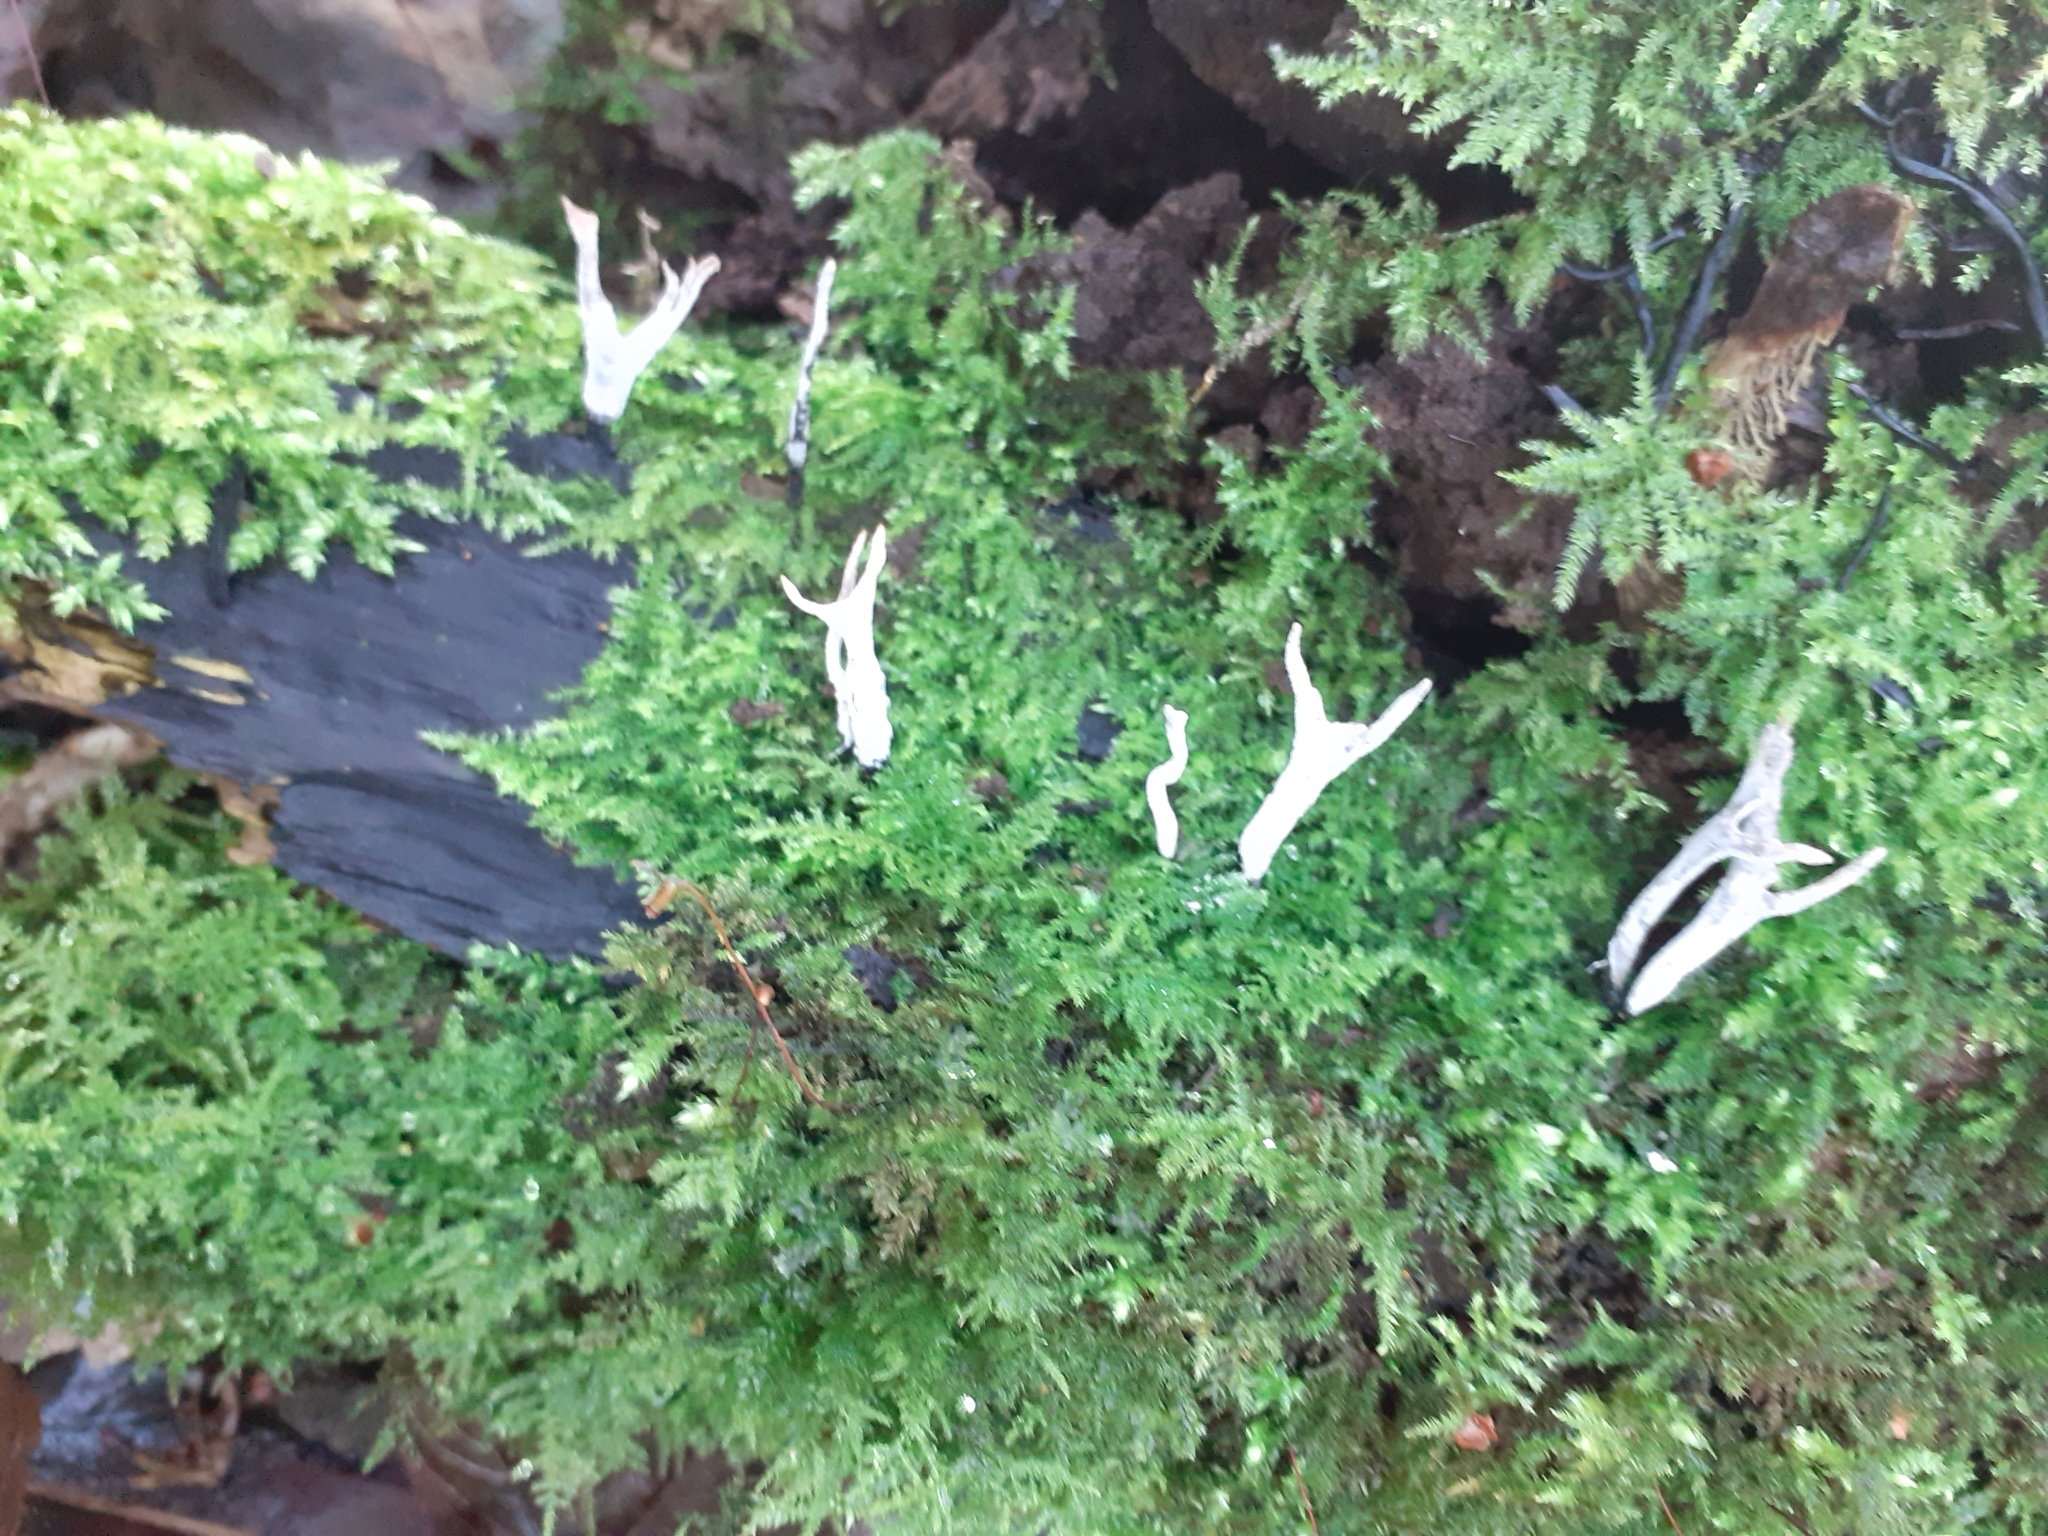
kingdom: Fungi
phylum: Ascomycota
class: Sordariomycetes
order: Xylariales
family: Xylariaceae
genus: Xylaria
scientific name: Xylaria hypoxylon
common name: Candle-snuff fungus
